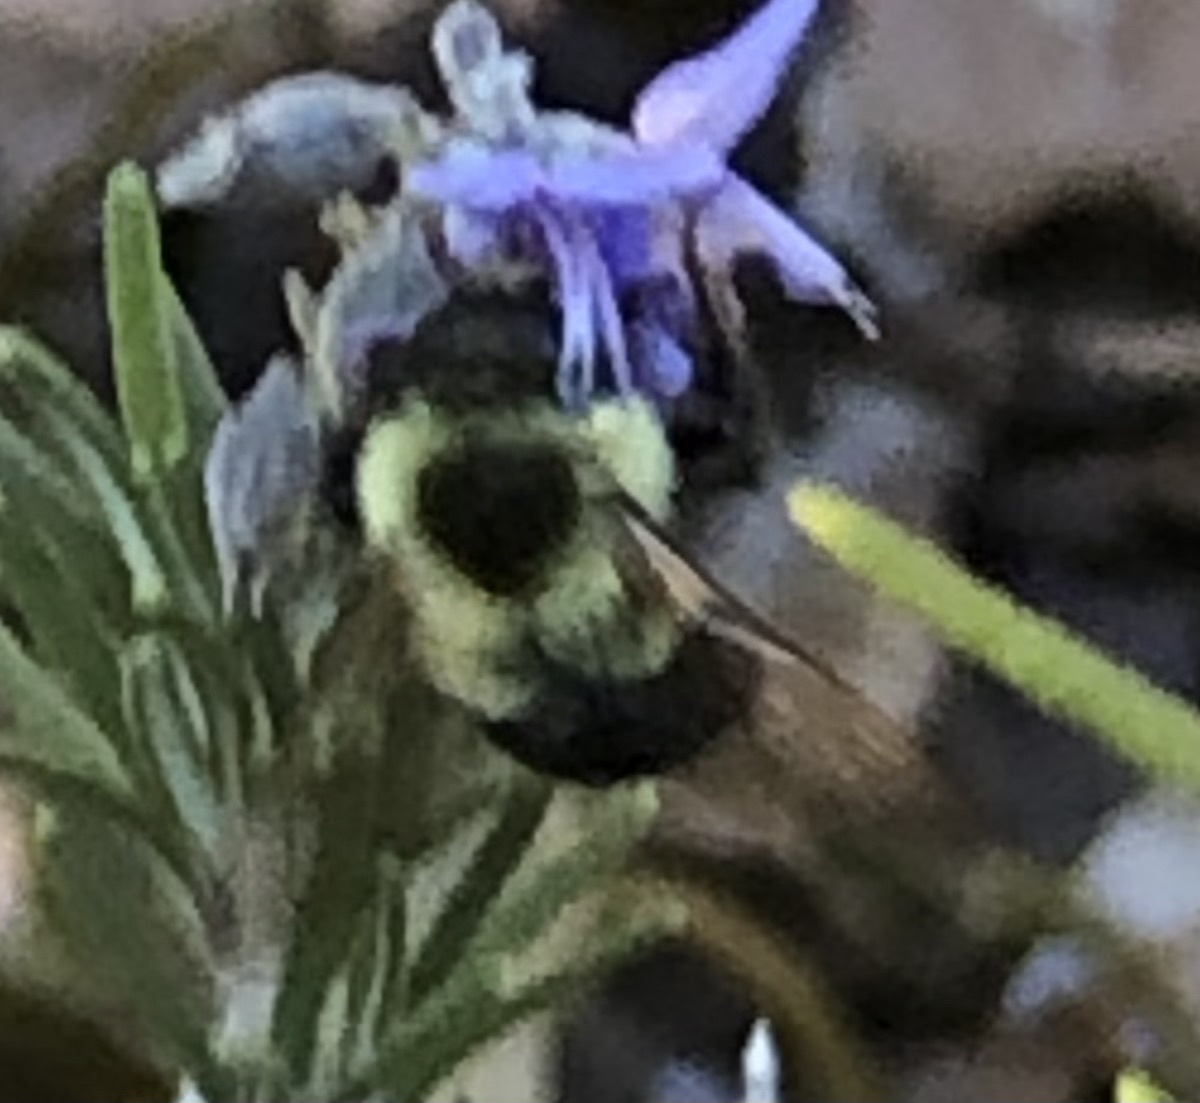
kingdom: Animalia
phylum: Arthropoda
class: Insecta
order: Hymenoptera
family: Apidae
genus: Bombus
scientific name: Bombus impatiens
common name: Common eastern bumble bee
